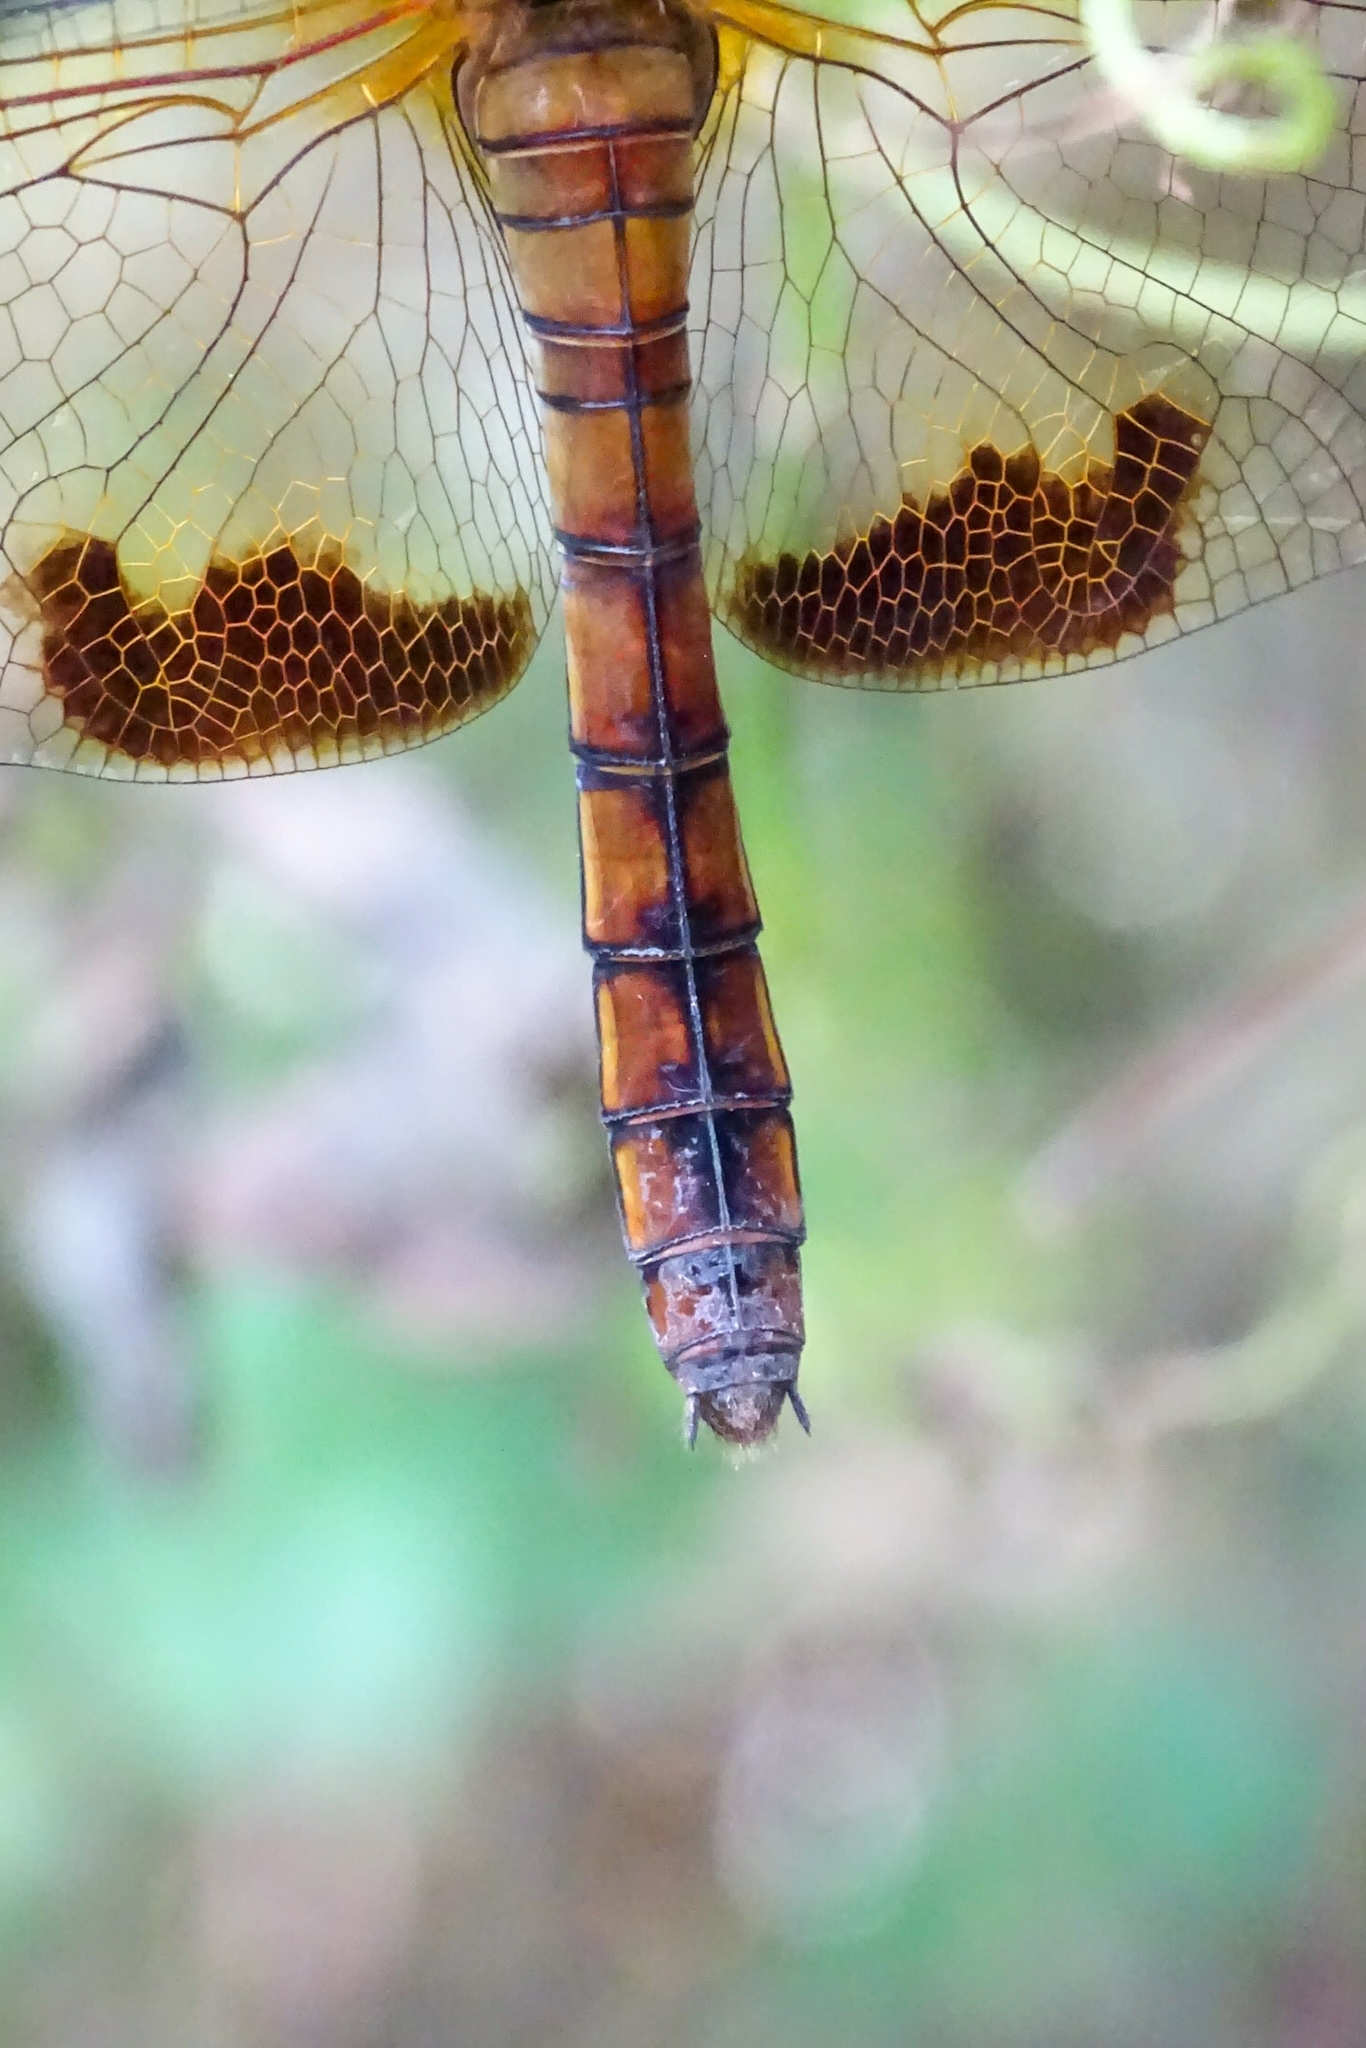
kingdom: Animalia
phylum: Arthropoda
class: Insecta
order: Odonata
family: Libellulidae
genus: Hydrobasileus
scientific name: Hydrobasileus croceus
